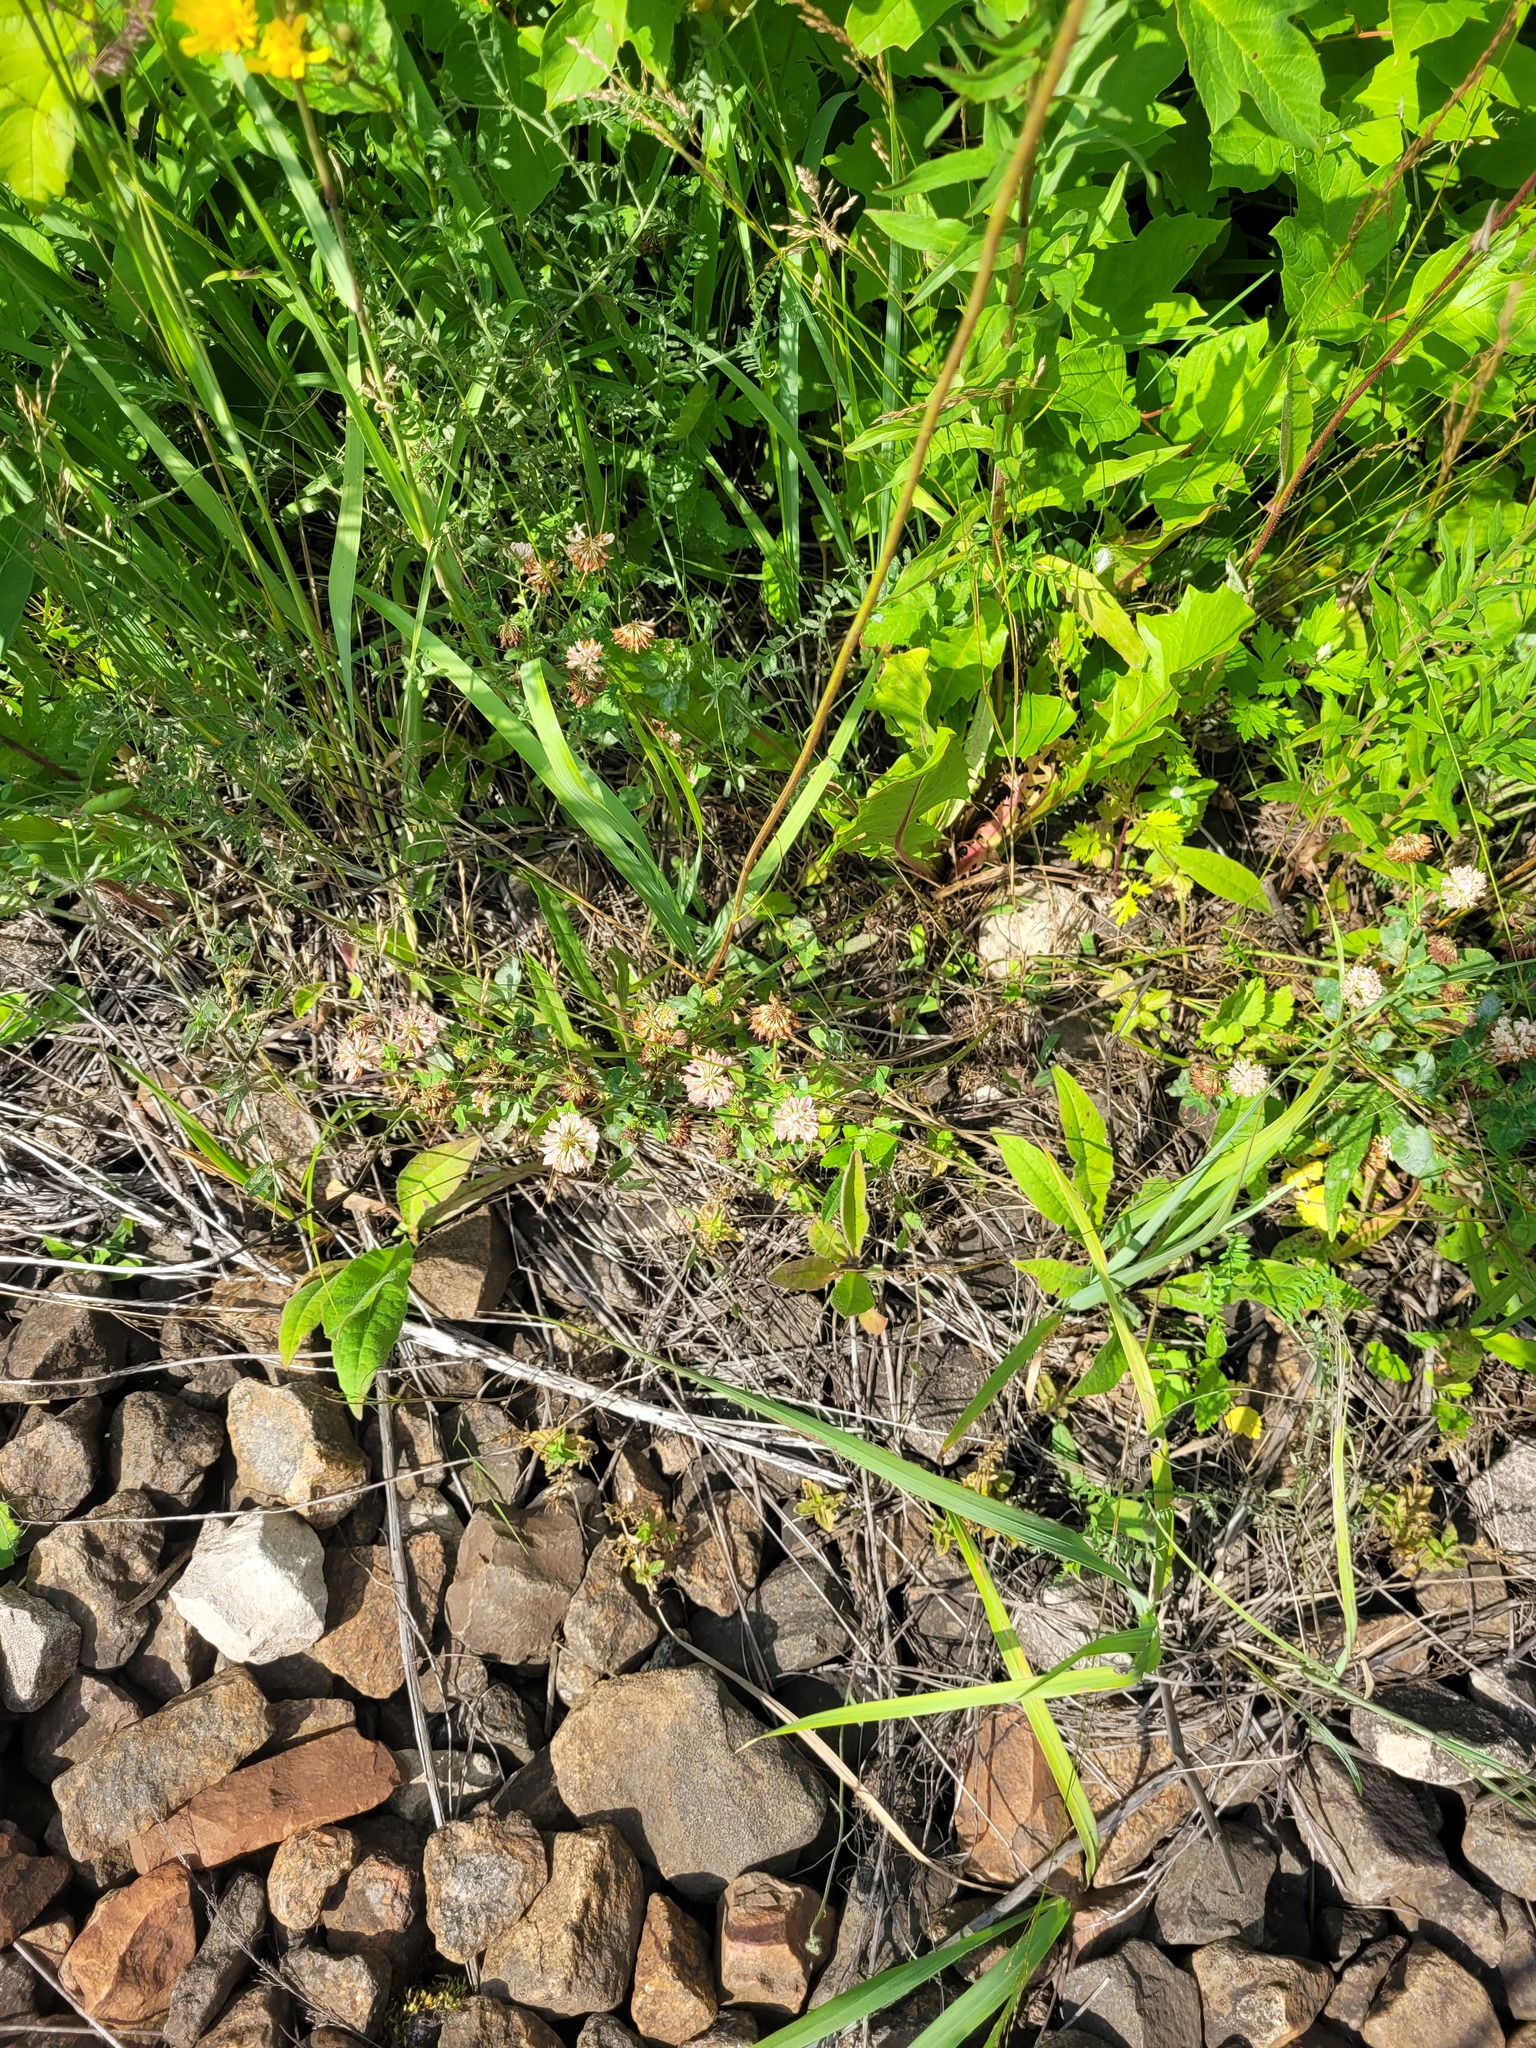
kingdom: Plantae
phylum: Tracheophyta
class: Magnoliopsida
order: Fabales
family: Fabaceae
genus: Trifolium
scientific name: Trifolium hybridum
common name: Alsike clover
